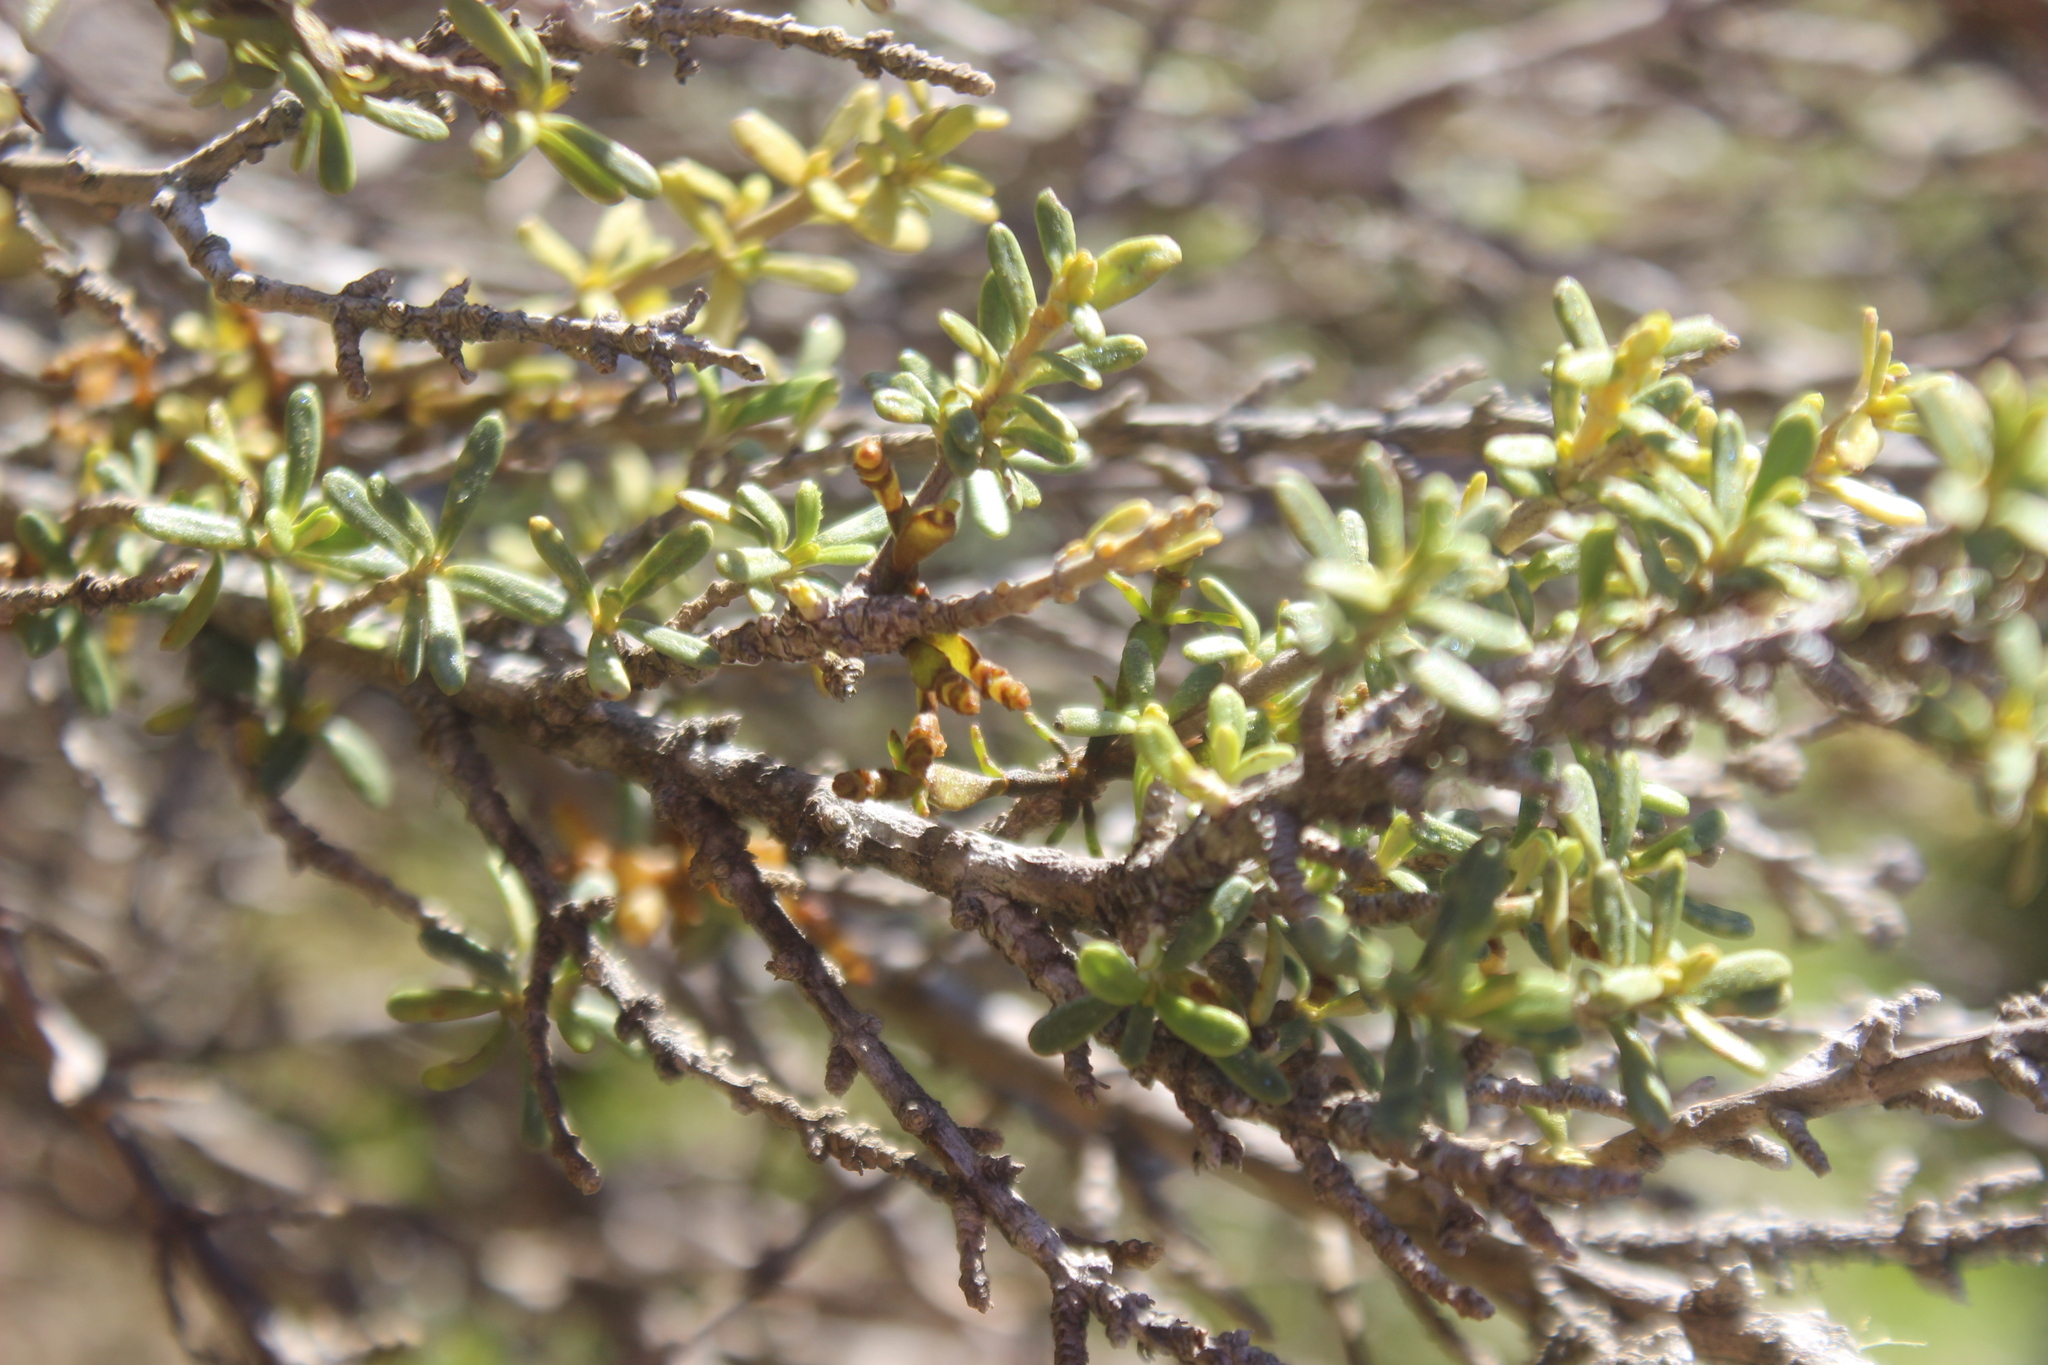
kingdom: Plantae
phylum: Tracheophyta
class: Magnoliopsida
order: Santalales
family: Viscaceae
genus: Korthalsella
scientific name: Korthalsella clavata
